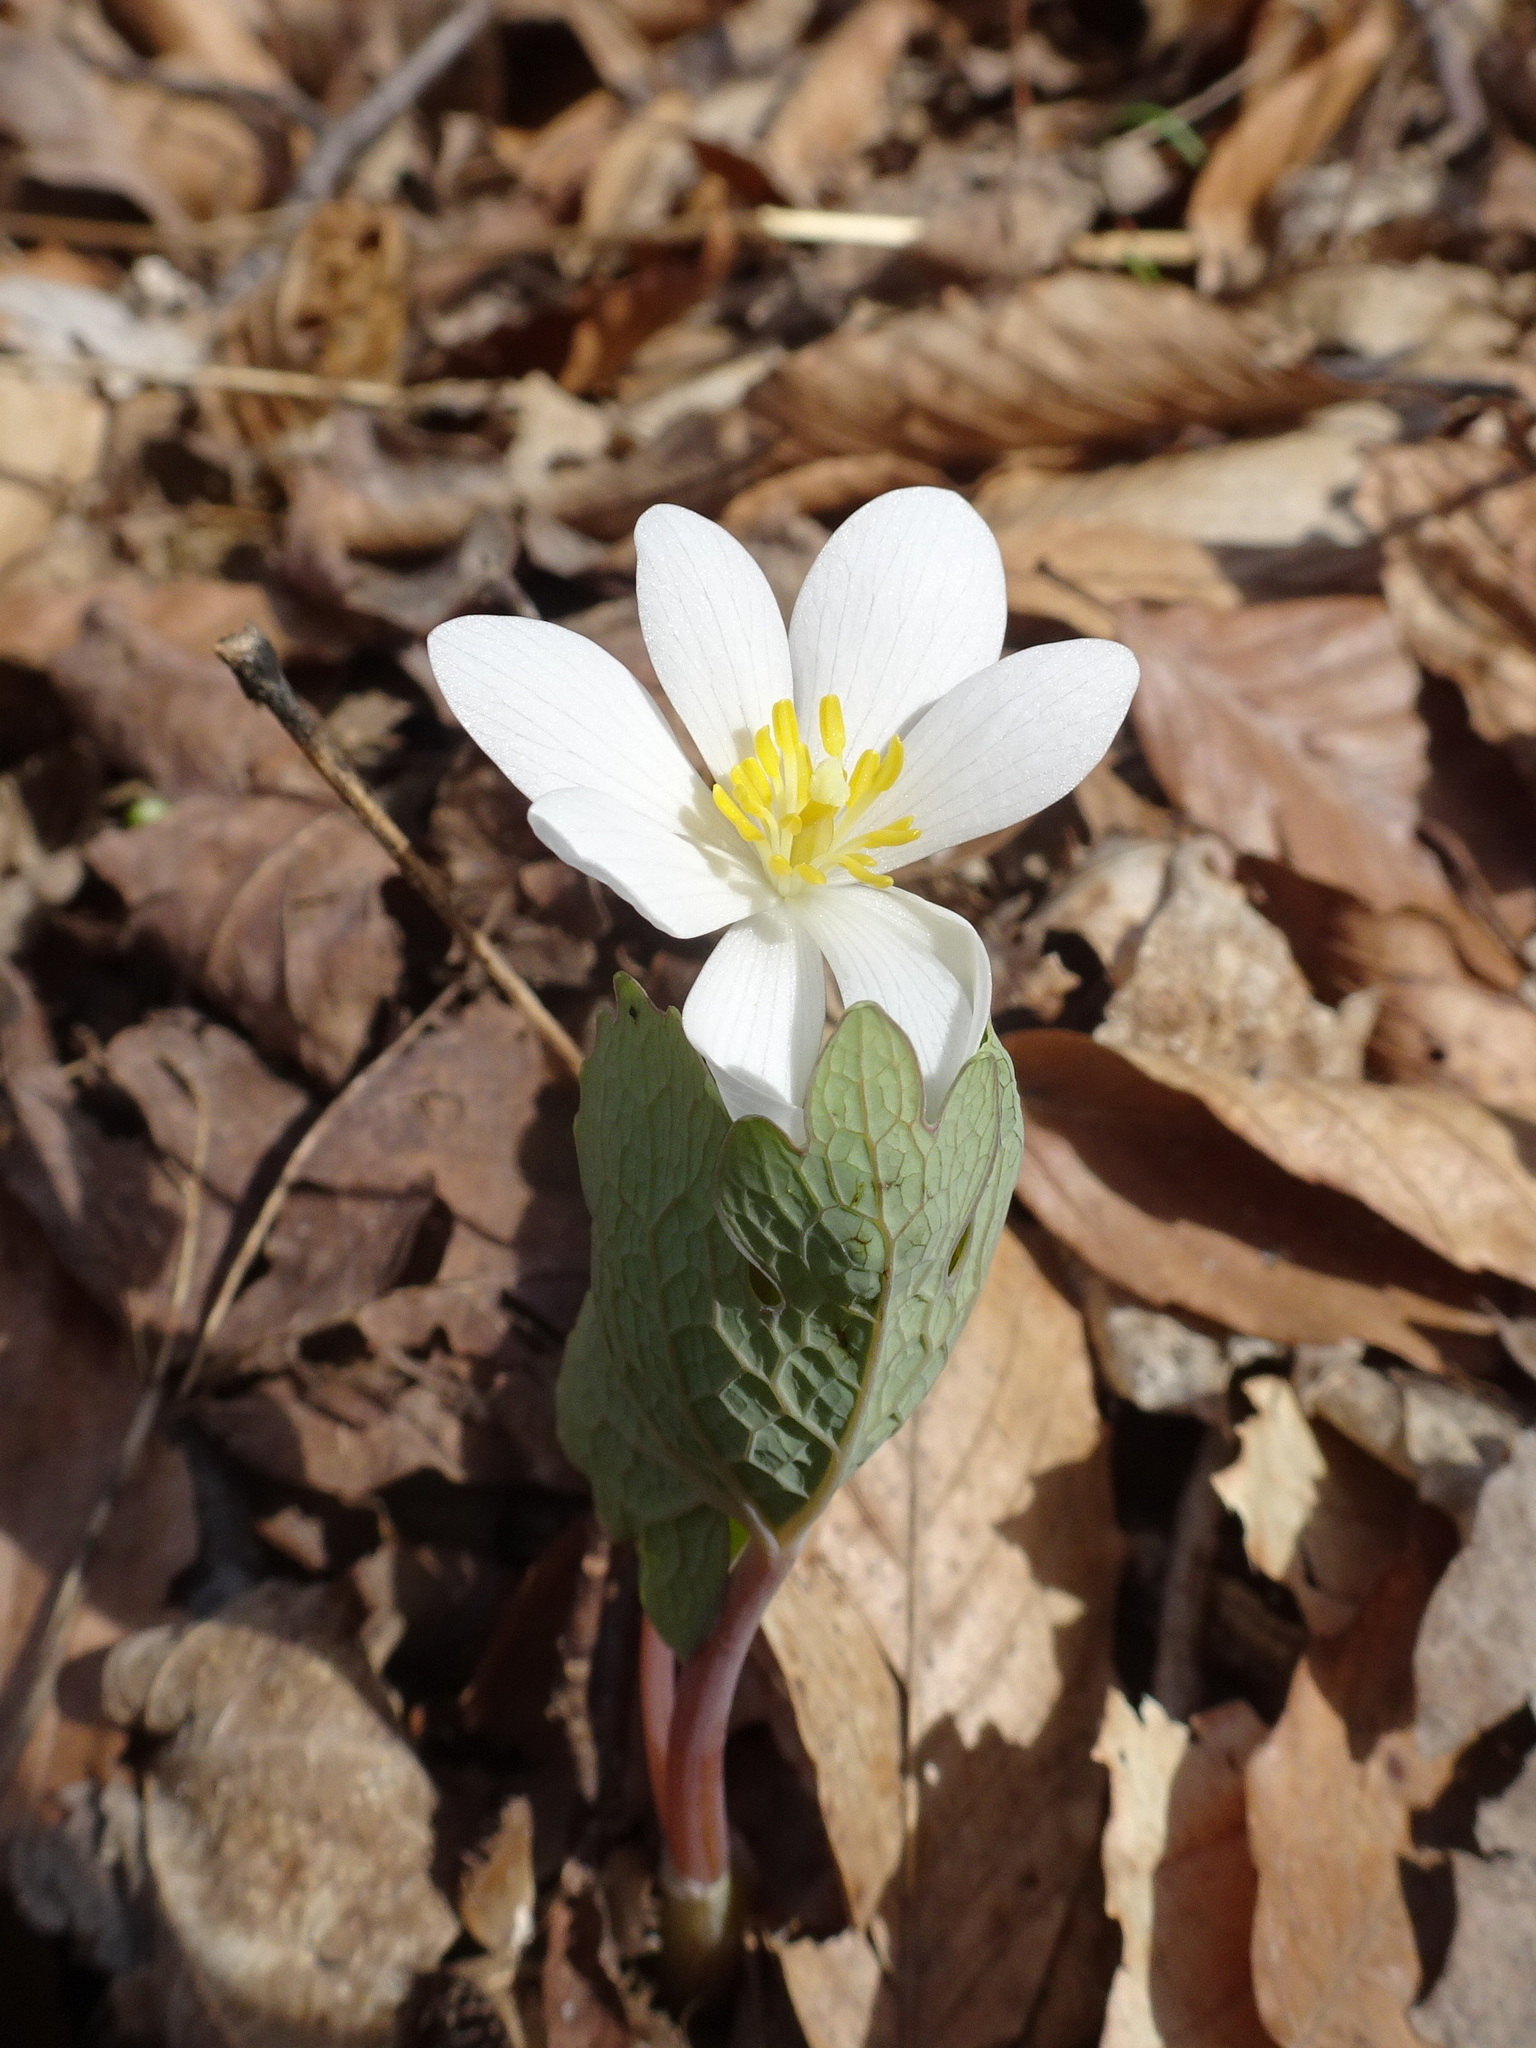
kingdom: Plantae
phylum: Tracheophyta
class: Magnoliopsida
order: Ranunculales
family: Papaveraceae
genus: Sanguinaria
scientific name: Sanguinaria canadensis
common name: Bloodroot
